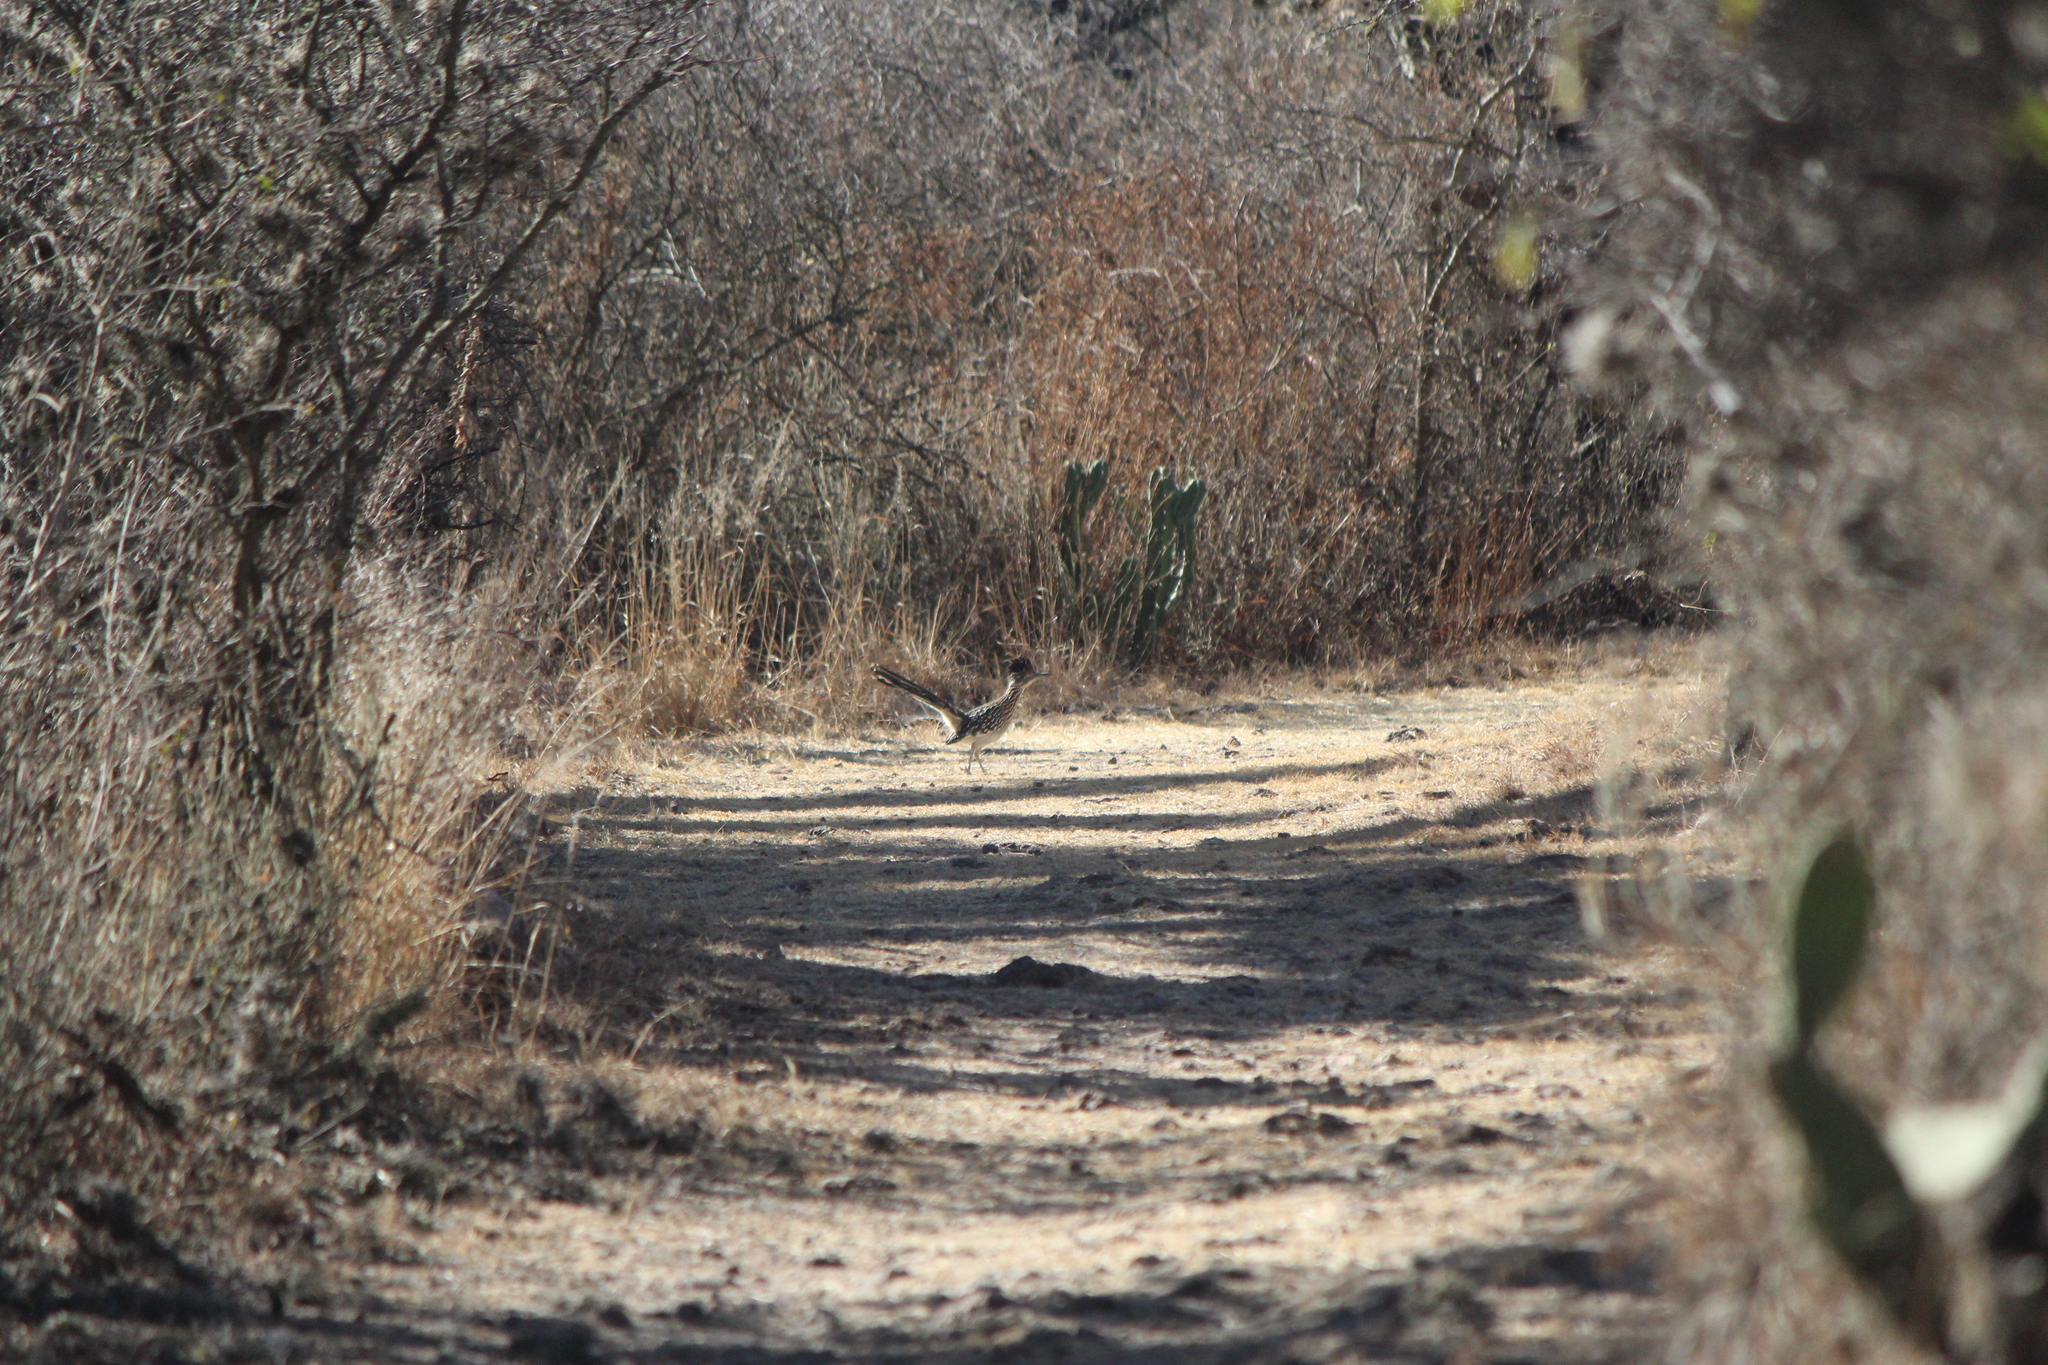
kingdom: Animalia
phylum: Chordata
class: Aves
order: Cuculiformes
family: Cuculidae
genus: Geococcyx
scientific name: Geococcyx californianus
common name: Greater roadrunner
